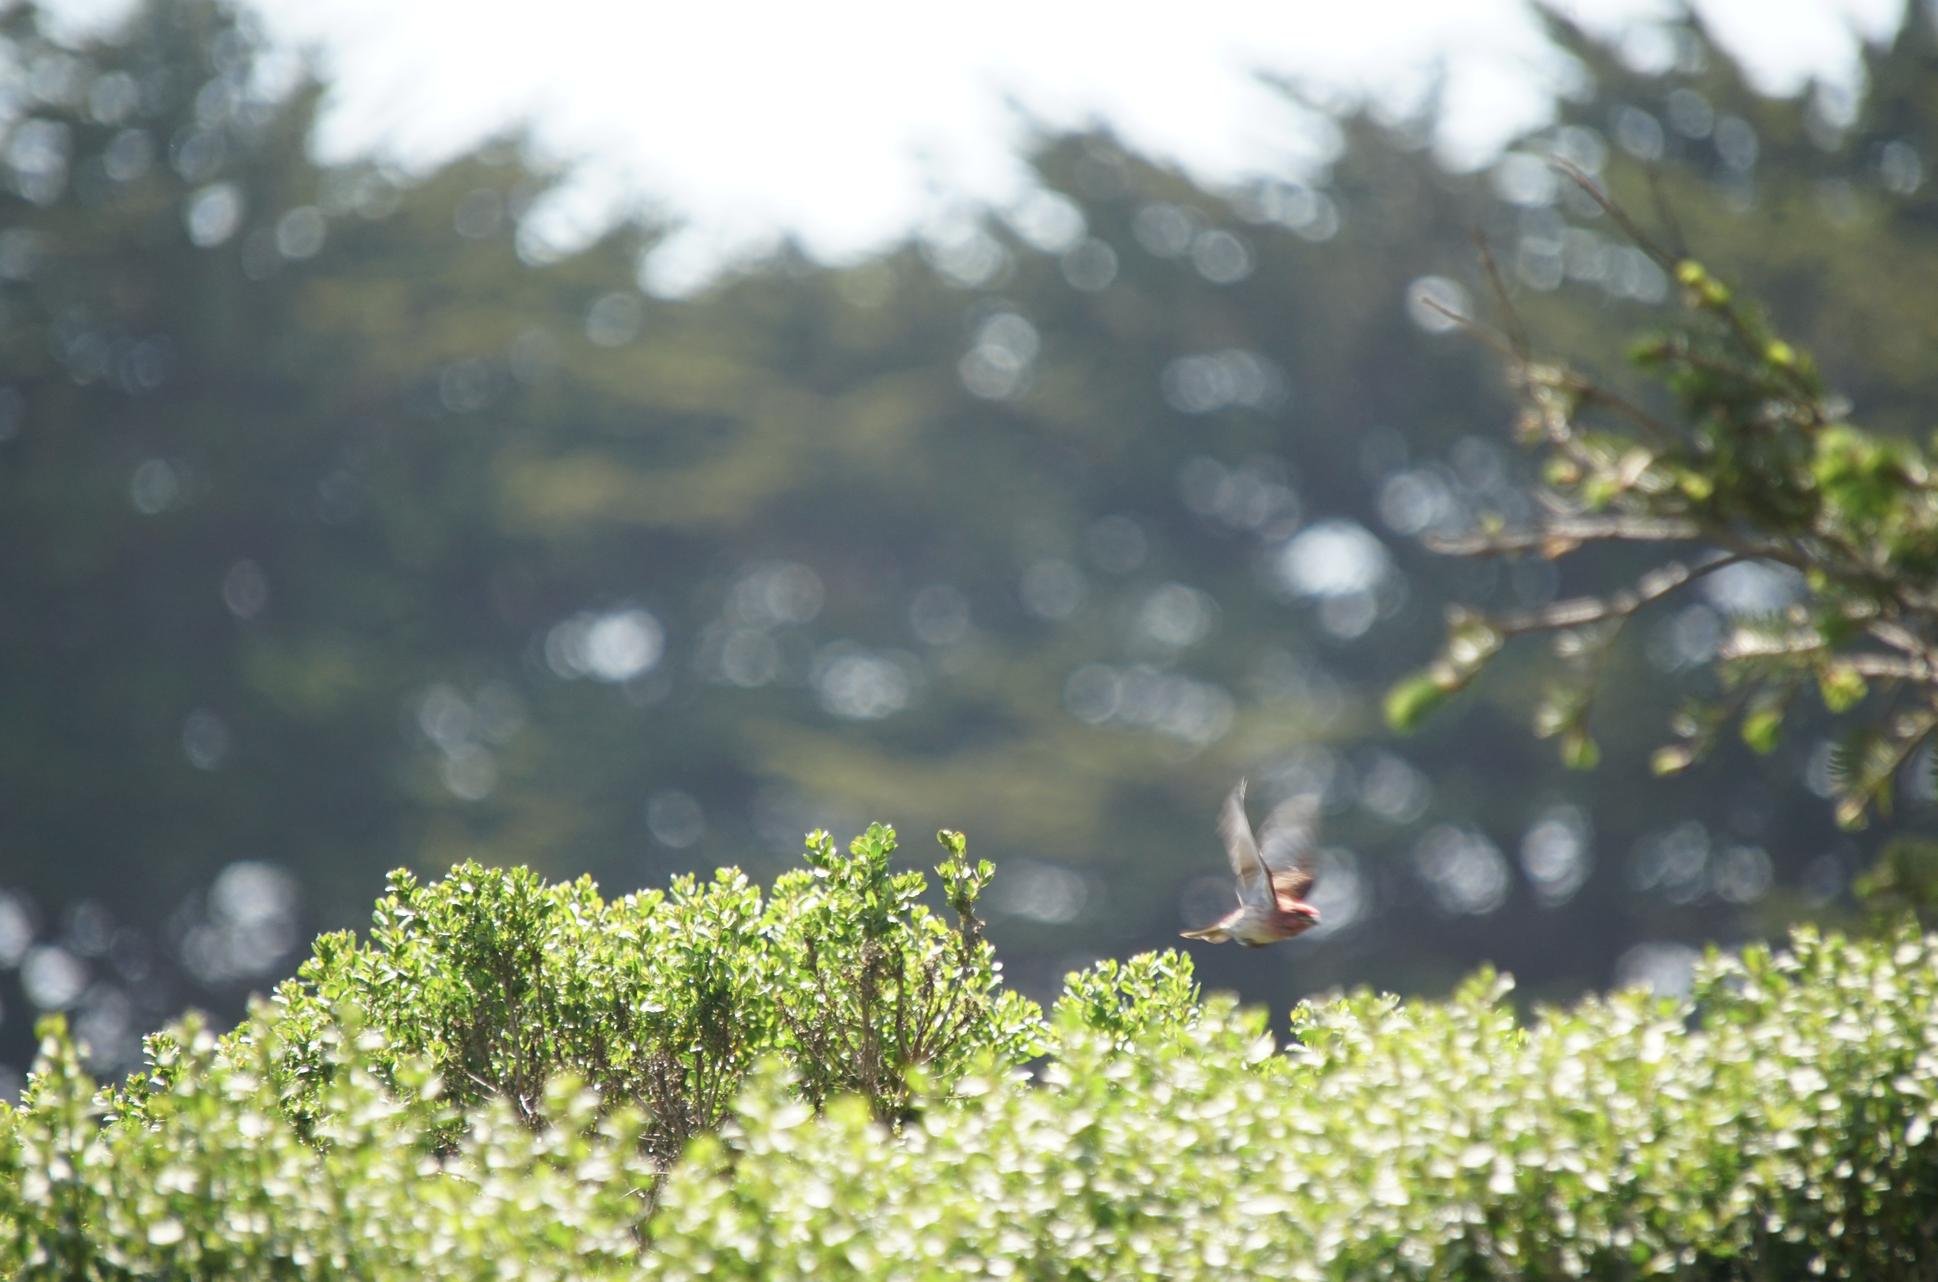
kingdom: Animalia
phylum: Chordata
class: Aves
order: Passeriformes
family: Fringillidae
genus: Haemorhous
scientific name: Haemorhous purpureus
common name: Purple finch
